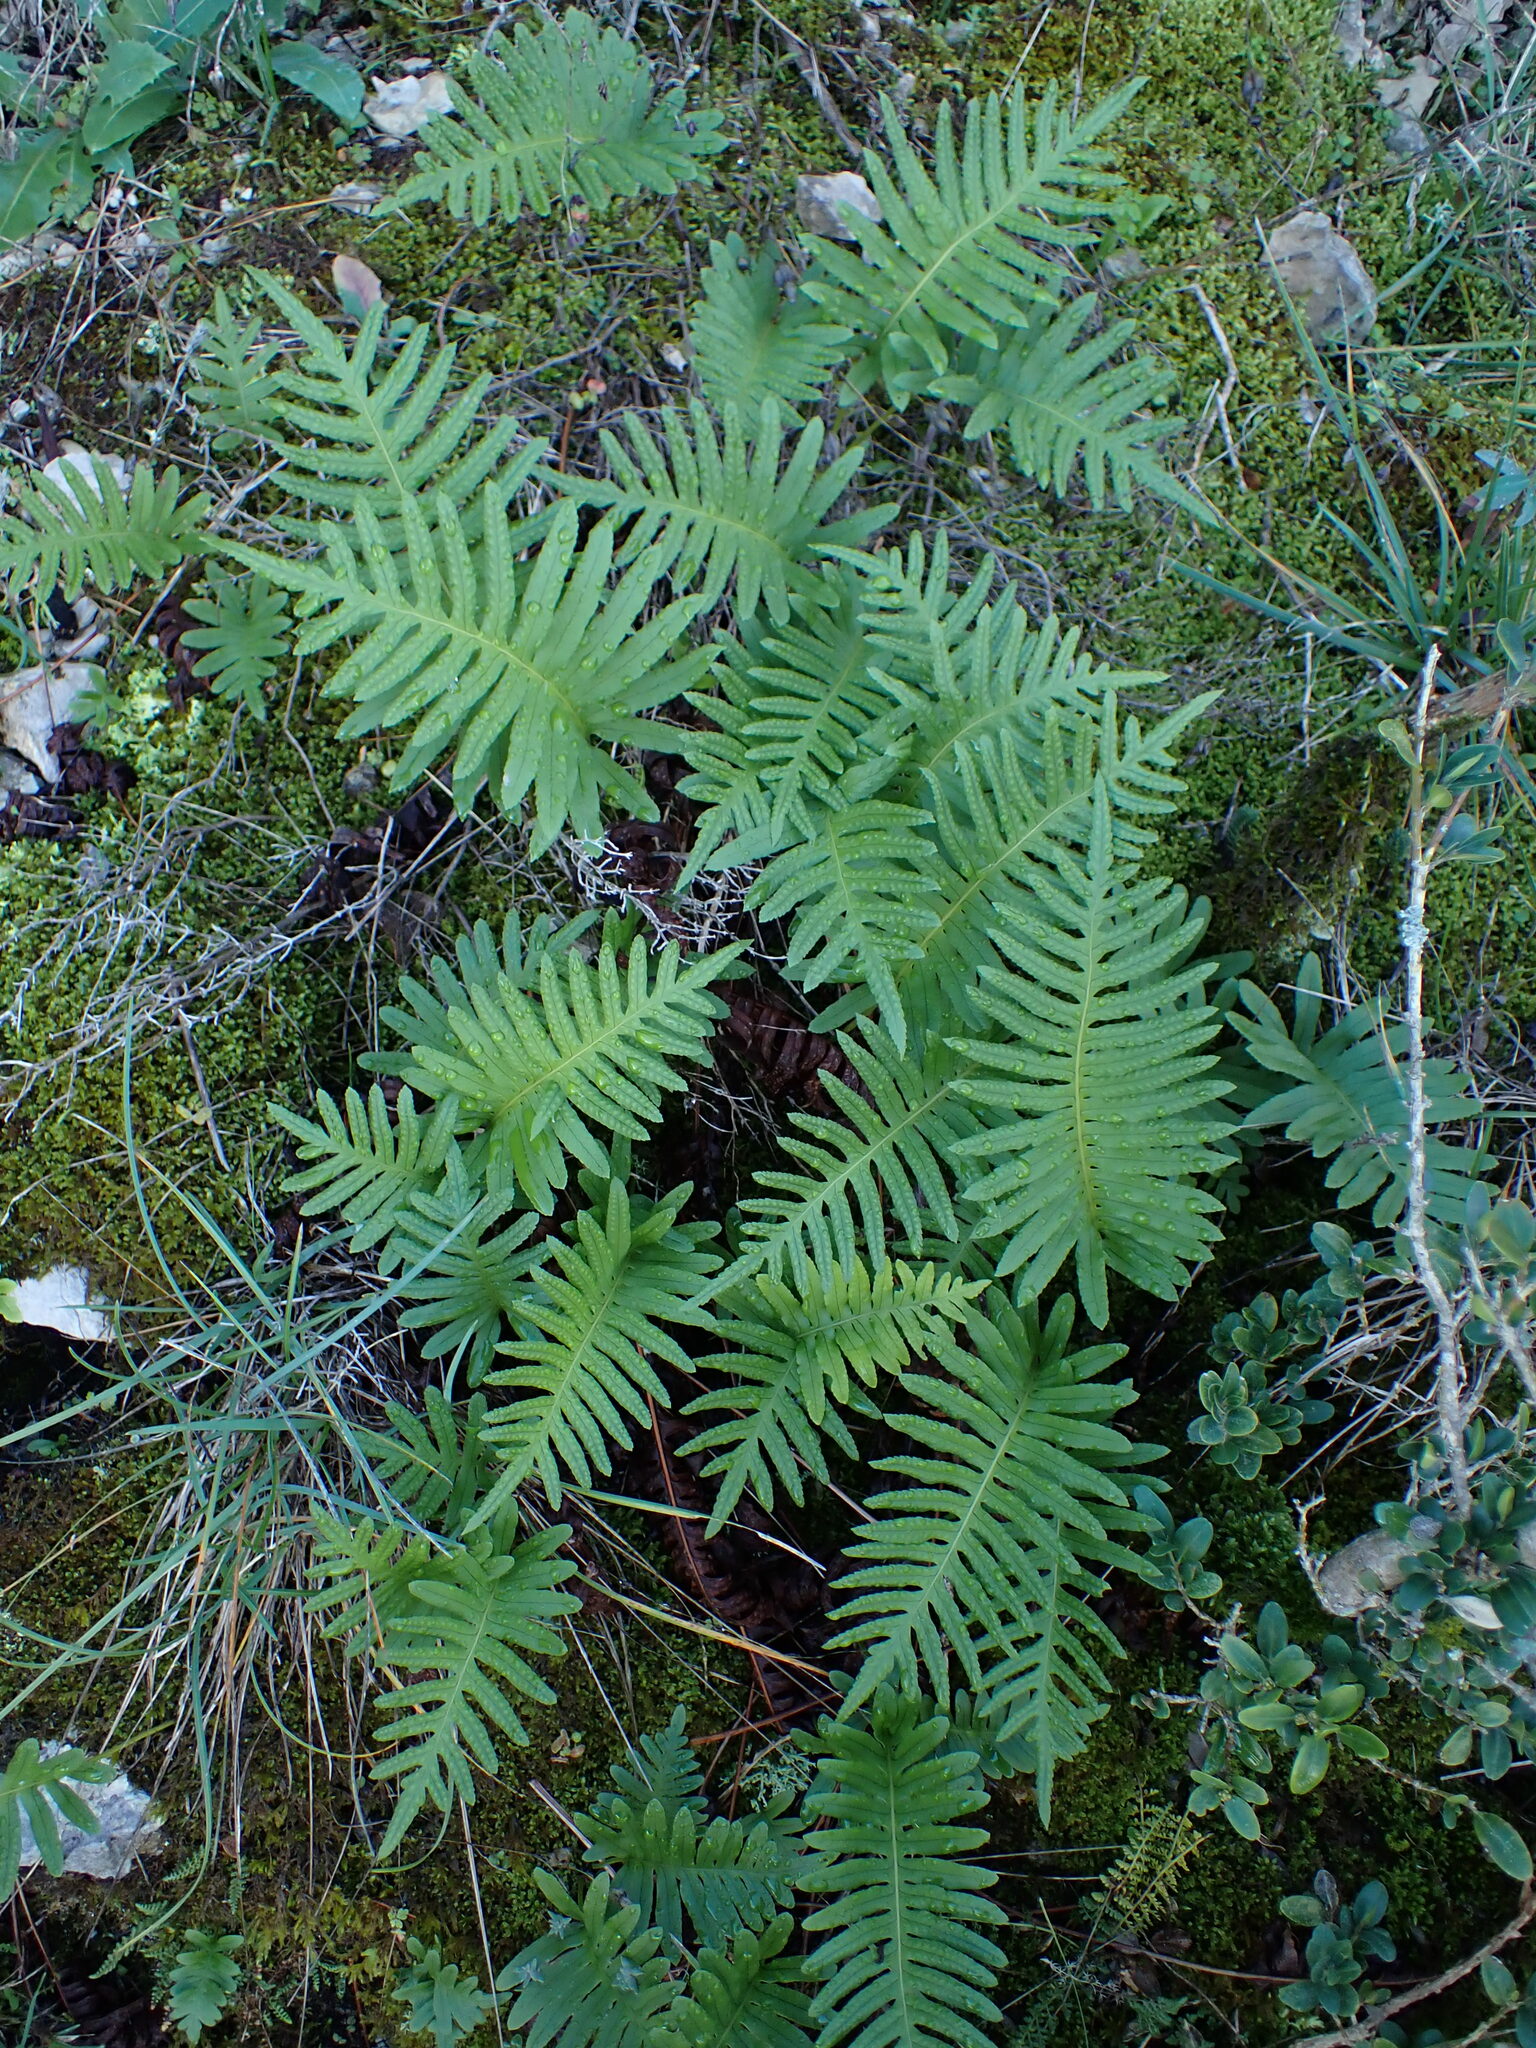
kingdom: Plantae
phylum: Tracheophyta
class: Polypodiopsida
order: Polypodiales
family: Polypodiaceae
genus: Polypodium
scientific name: Polypodium cambricum
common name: Southern polypody
